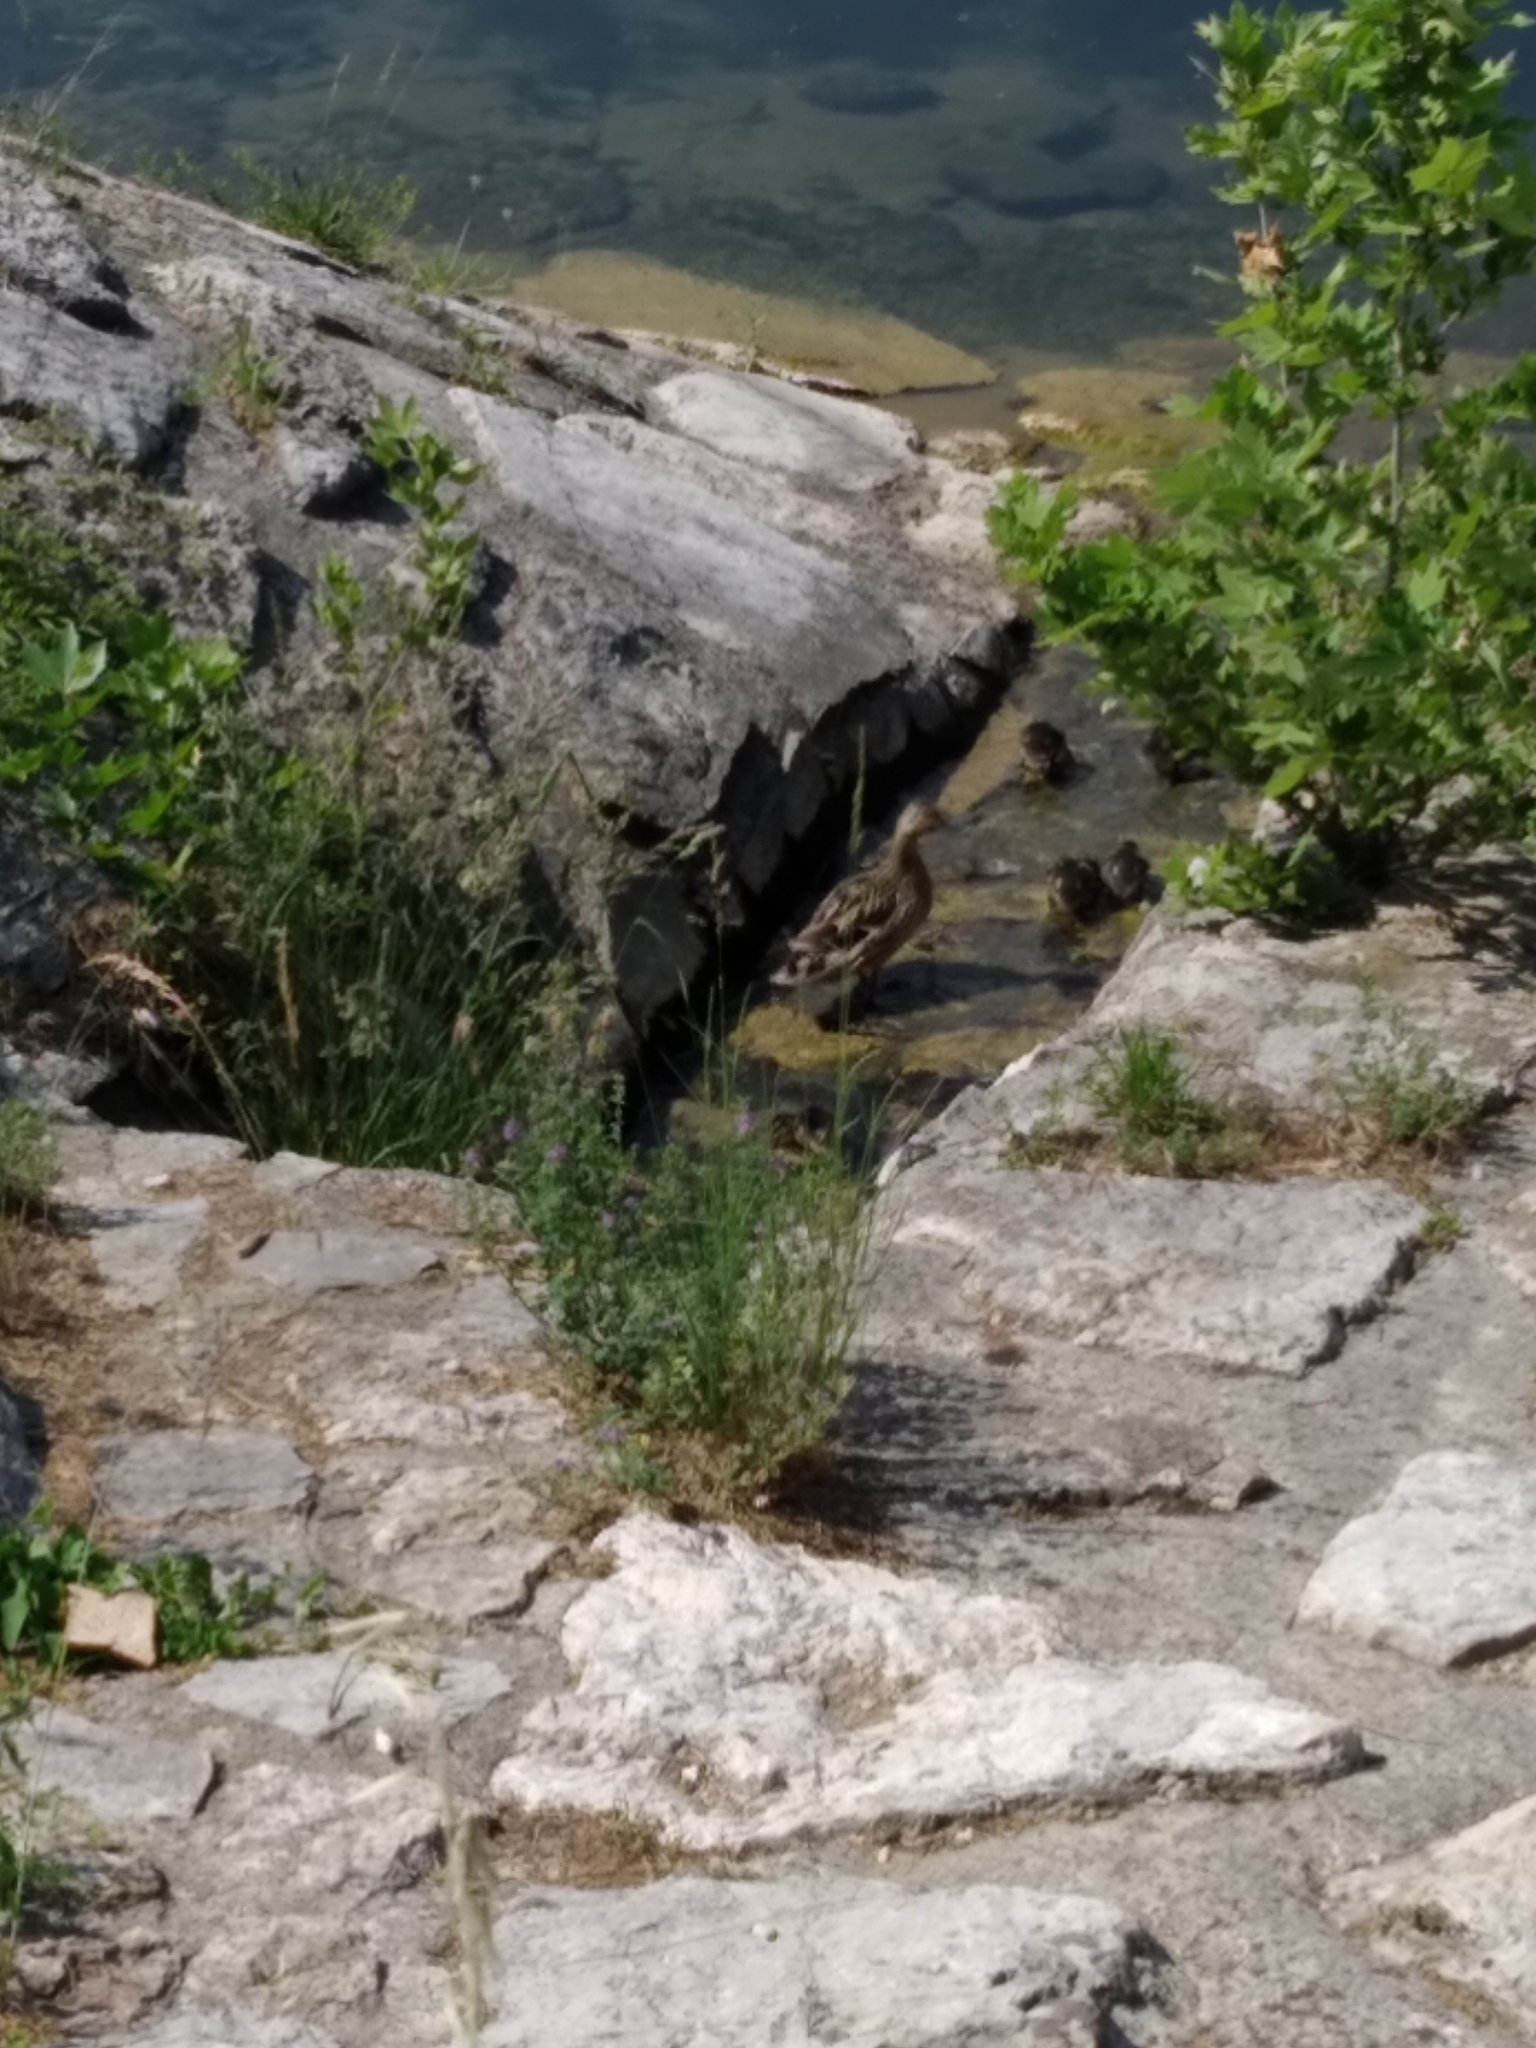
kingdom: Animalia
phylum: Chordata
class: Aves
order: Anseriformes
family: Anatidae
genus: Anas
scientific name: Anas platyrhynchos
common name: Mallard
